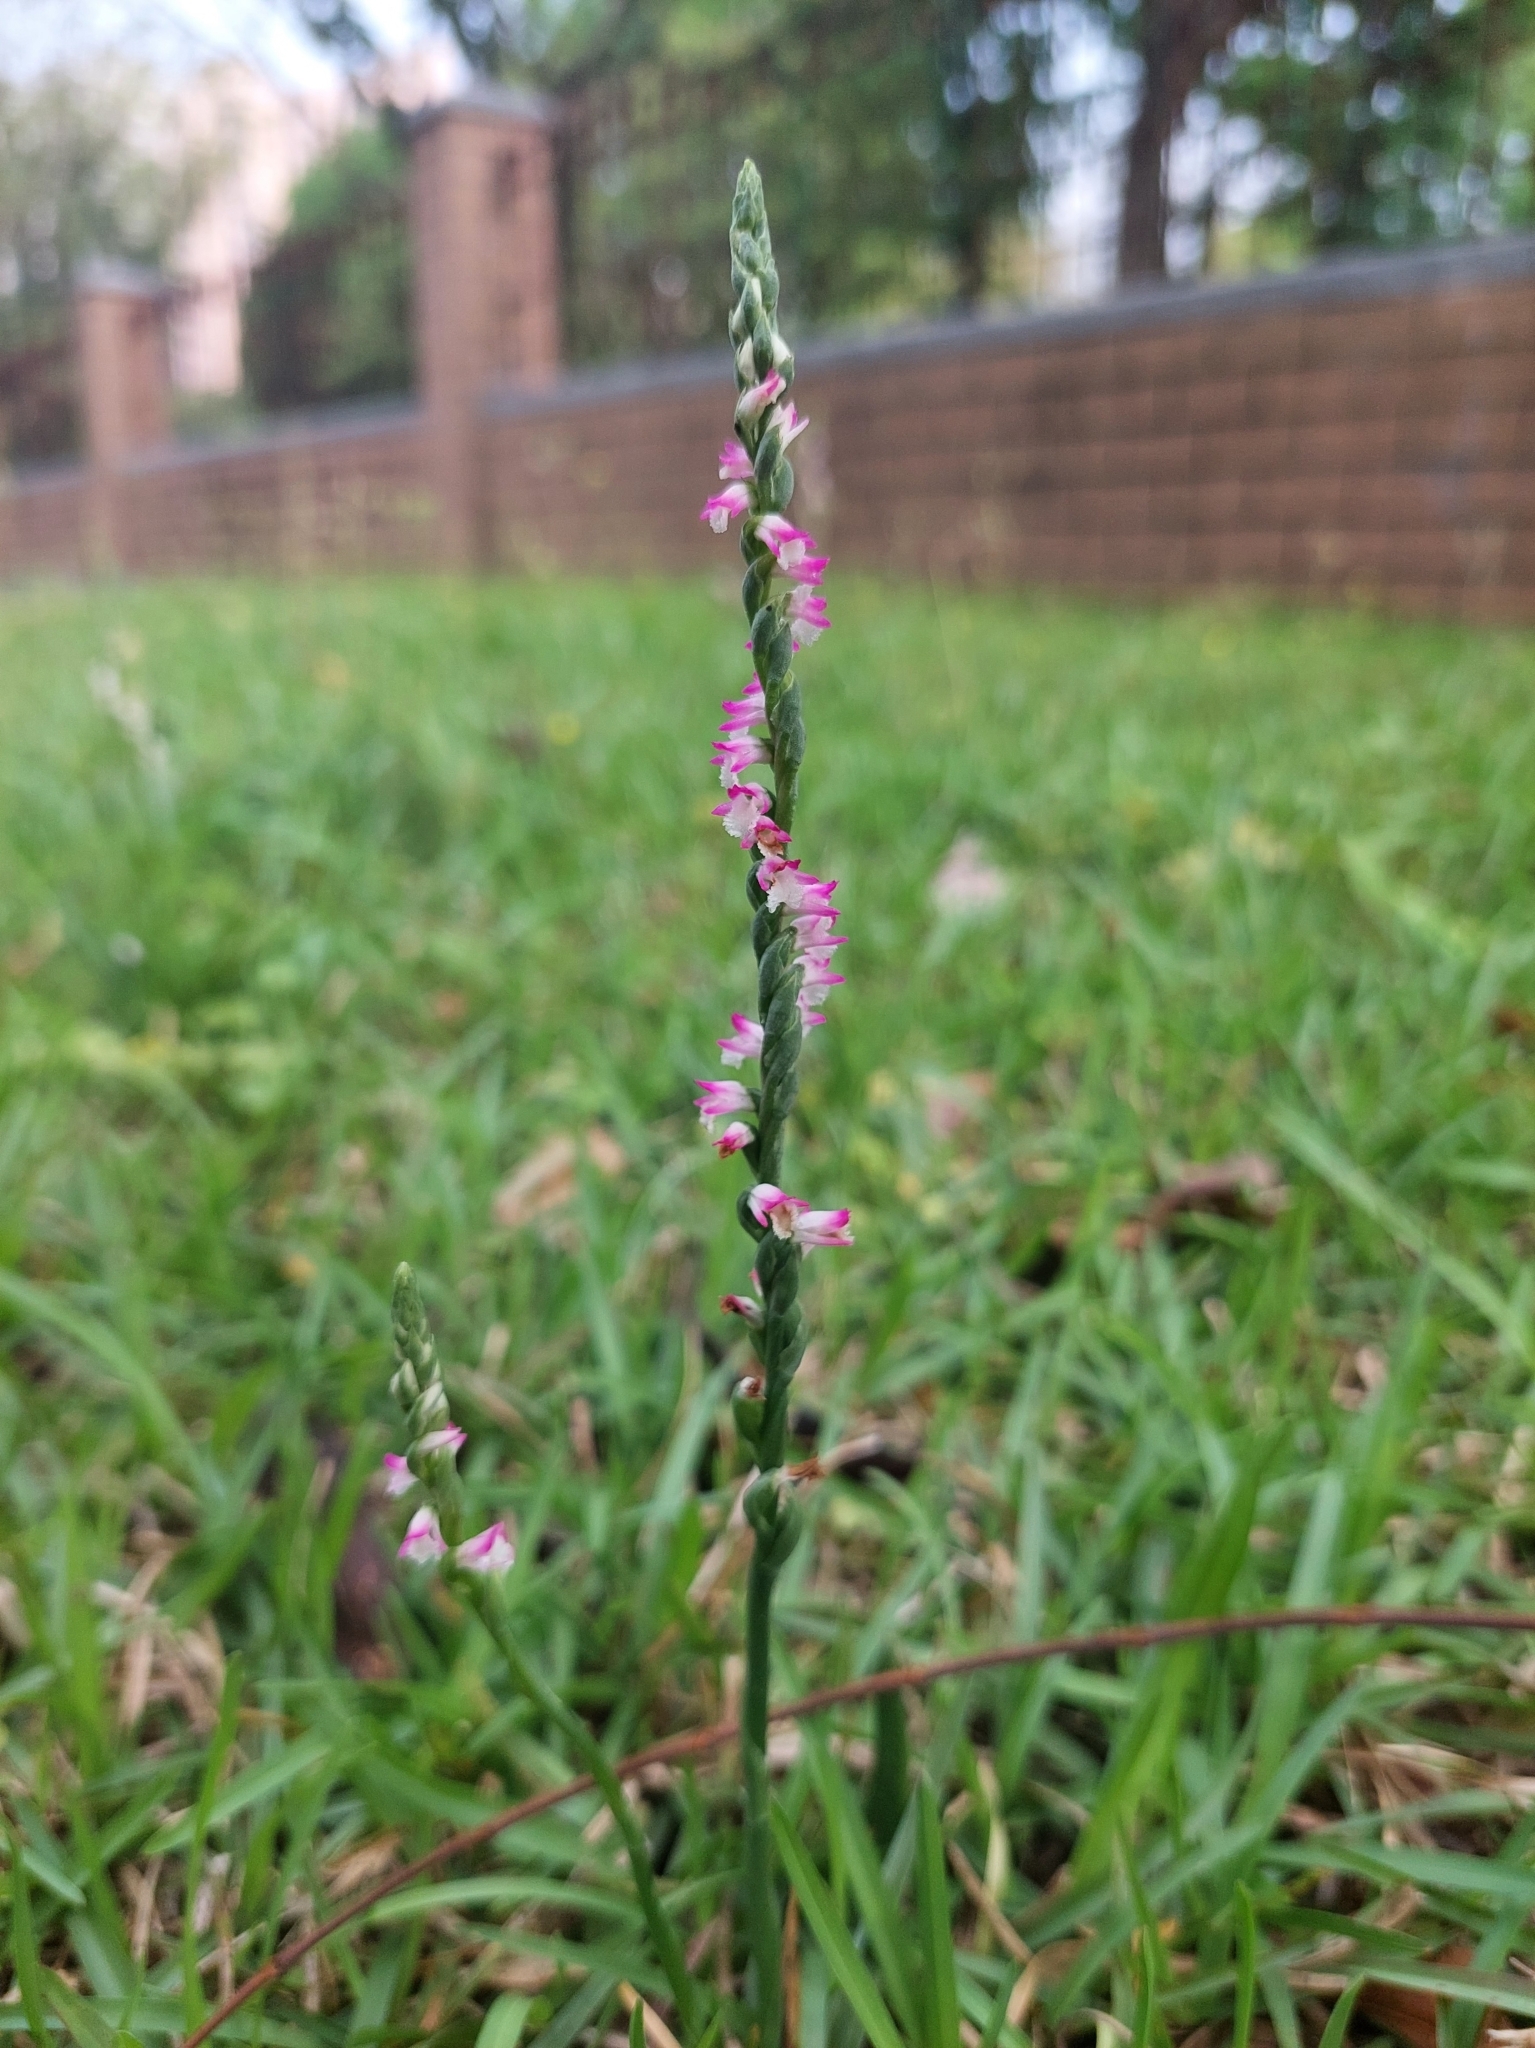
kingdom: Plantae
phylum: Tracheophyta
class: Liliopsida
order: Asparagales
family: Orchidaceae
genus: Spiranthes
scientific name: Spiranthes sinensis
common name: Chinese spiranthes
